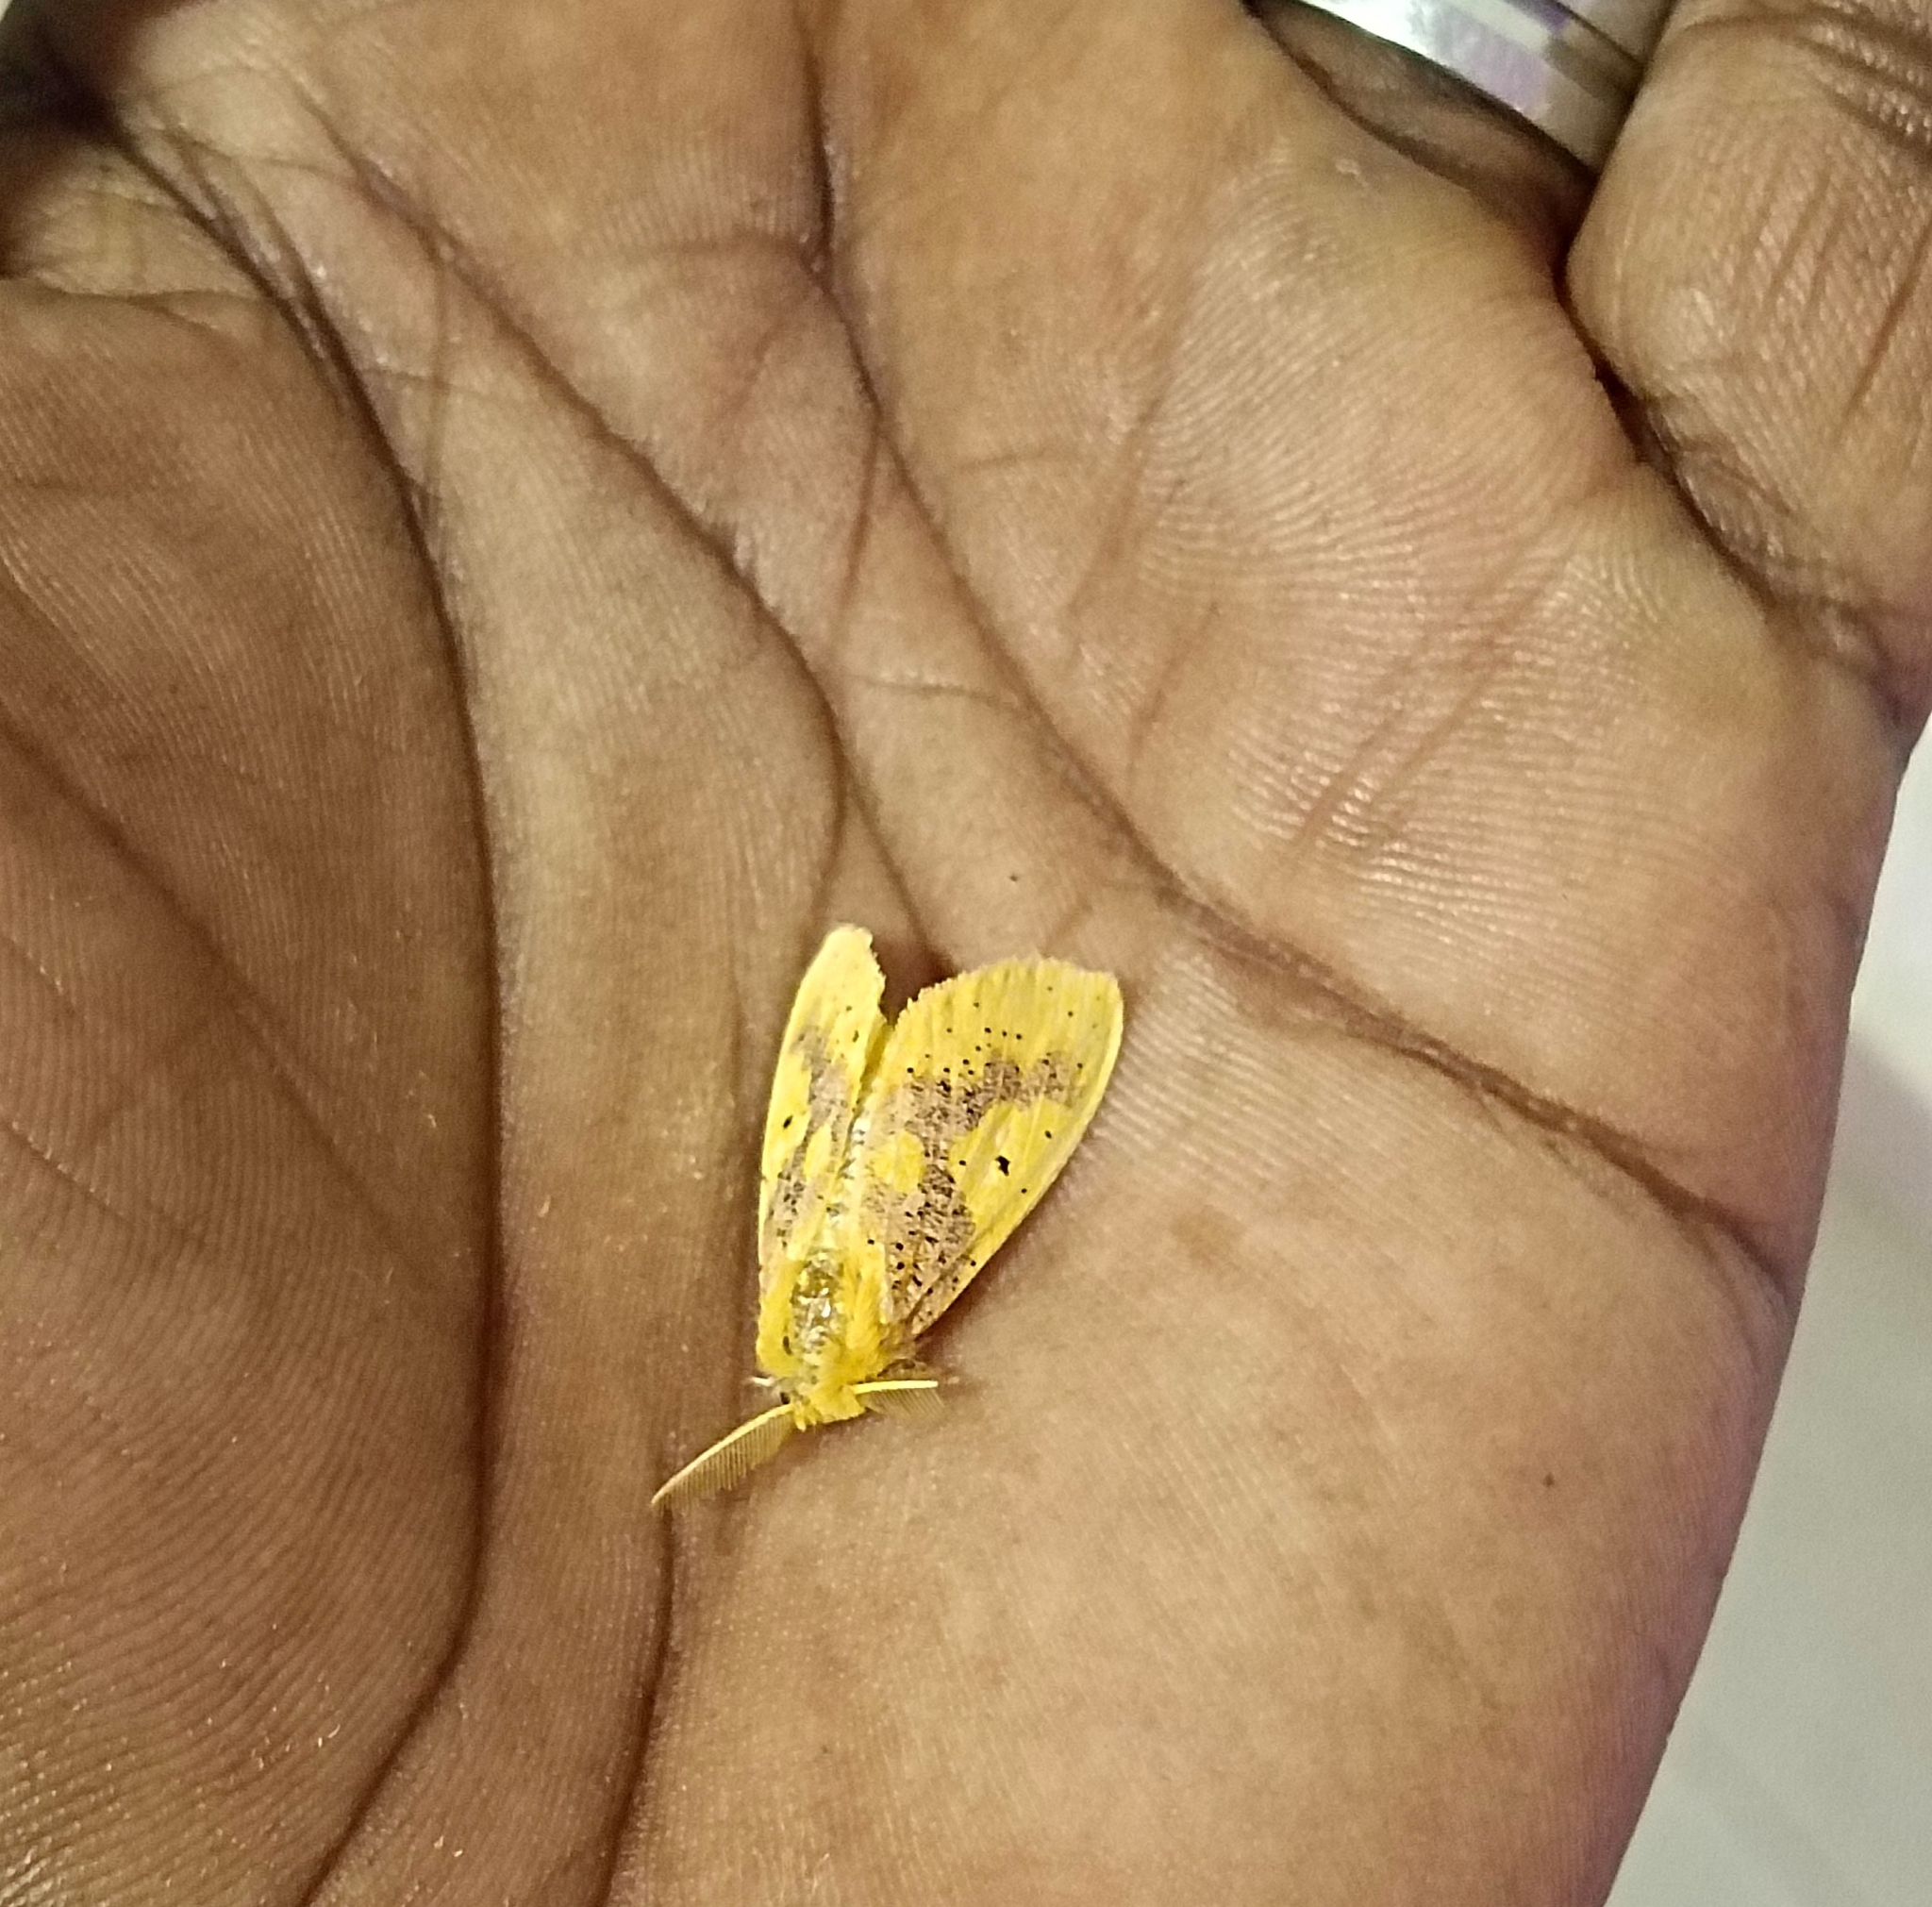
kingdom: Animalia
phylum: Arthropoda
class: Insecta
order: Lepidoptera
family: Erebidae
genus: Nygmia
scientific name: Nygmia icilia
